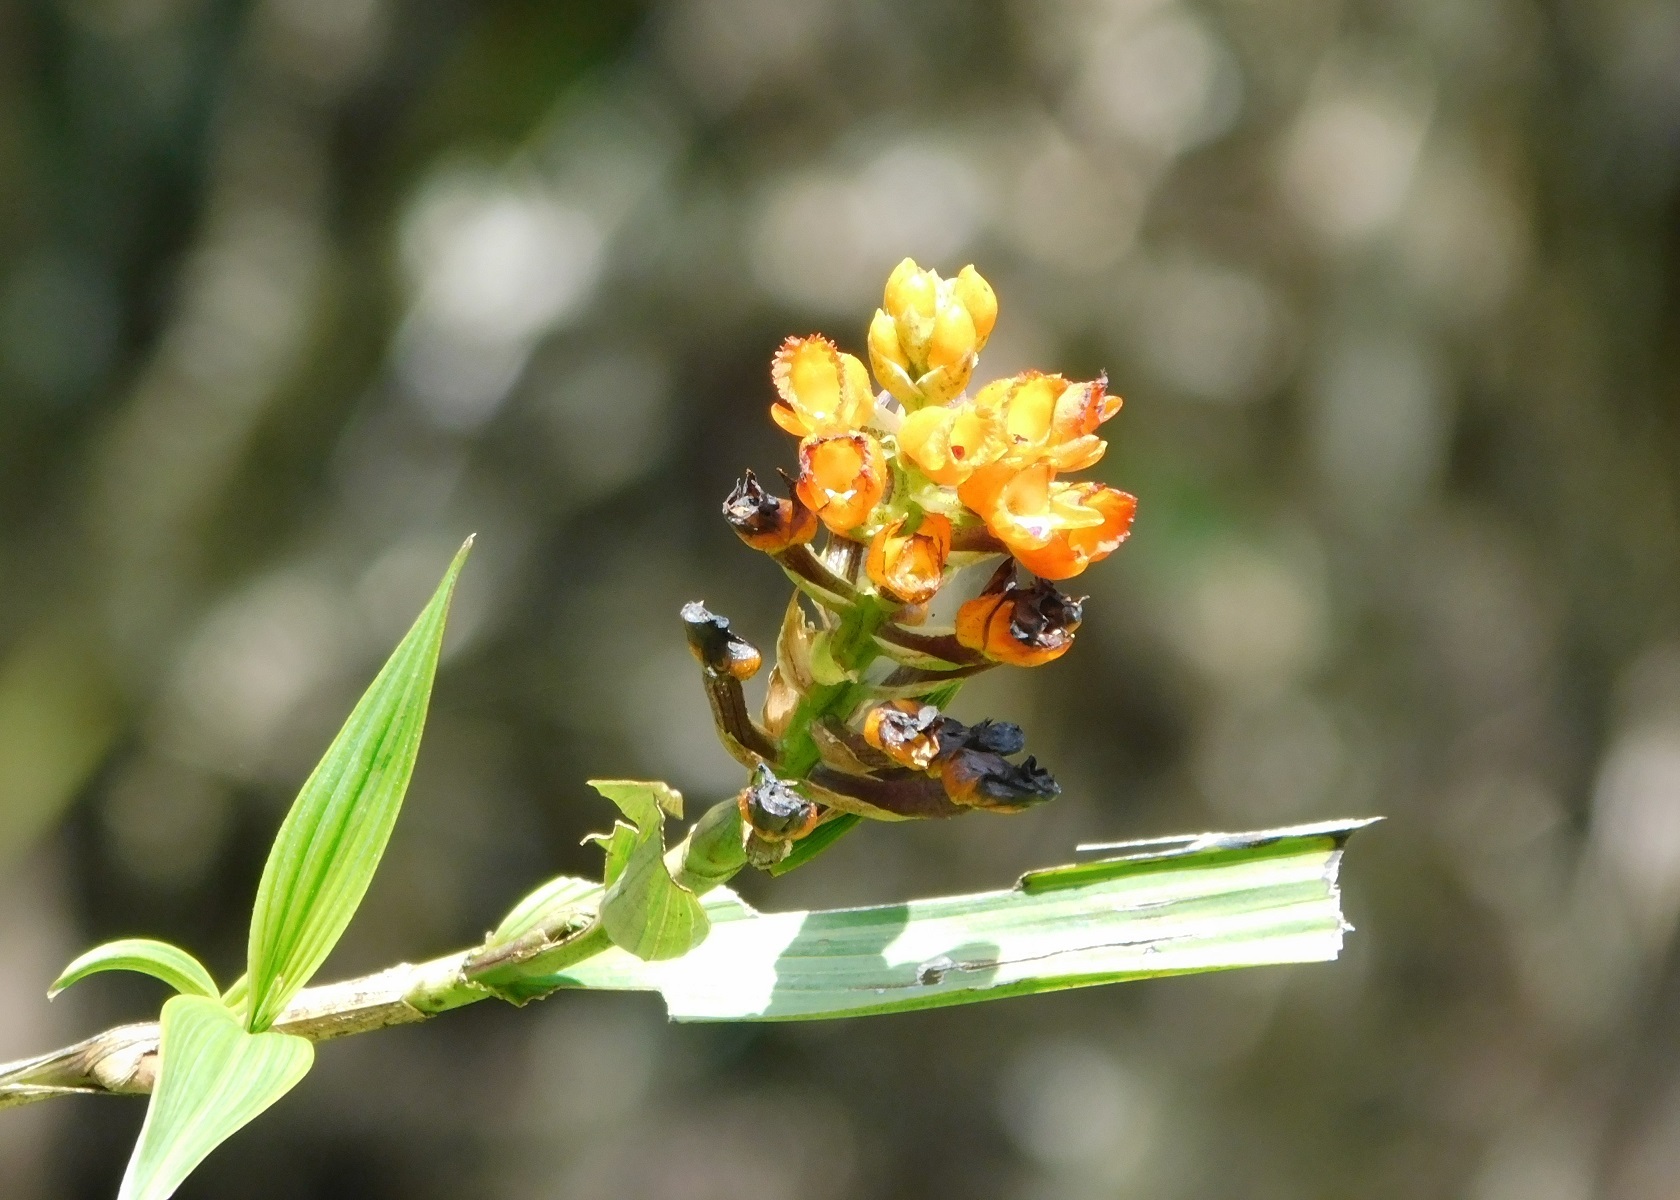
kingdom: Plantae
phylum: Tracheophyta
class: Liliopsida
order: Asparagales
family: Orchidaceae
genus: Elleanthus
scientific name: Elleanthus aurantiacus
